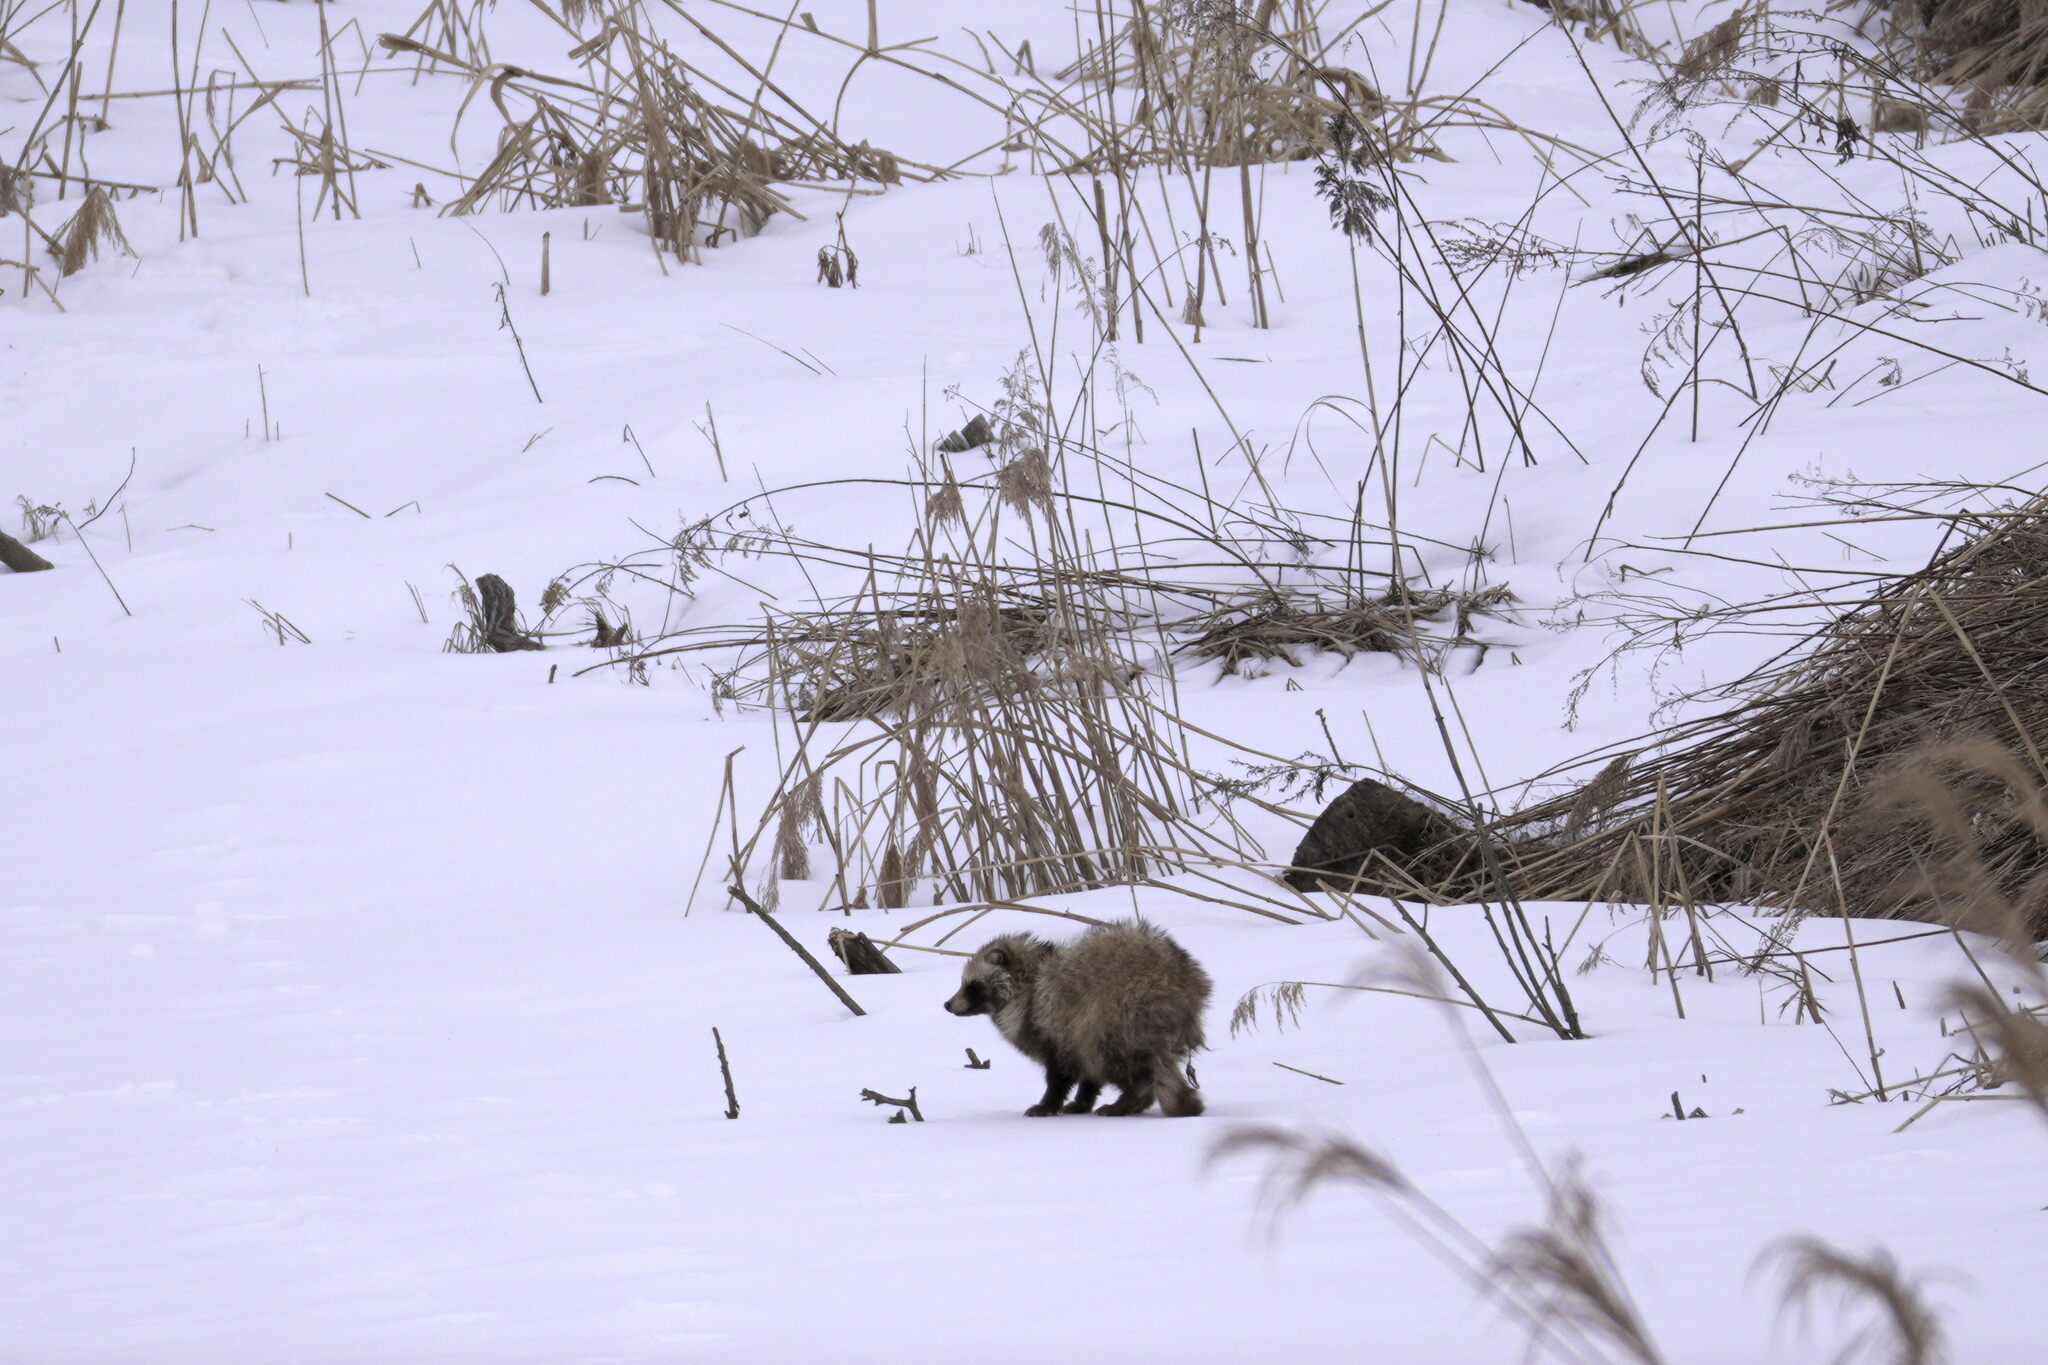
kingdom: Animalia
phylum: Chordata
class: Mammalia
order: Carnivora
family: Canidae
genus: Nyctereutes
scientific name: Nyctereutes
